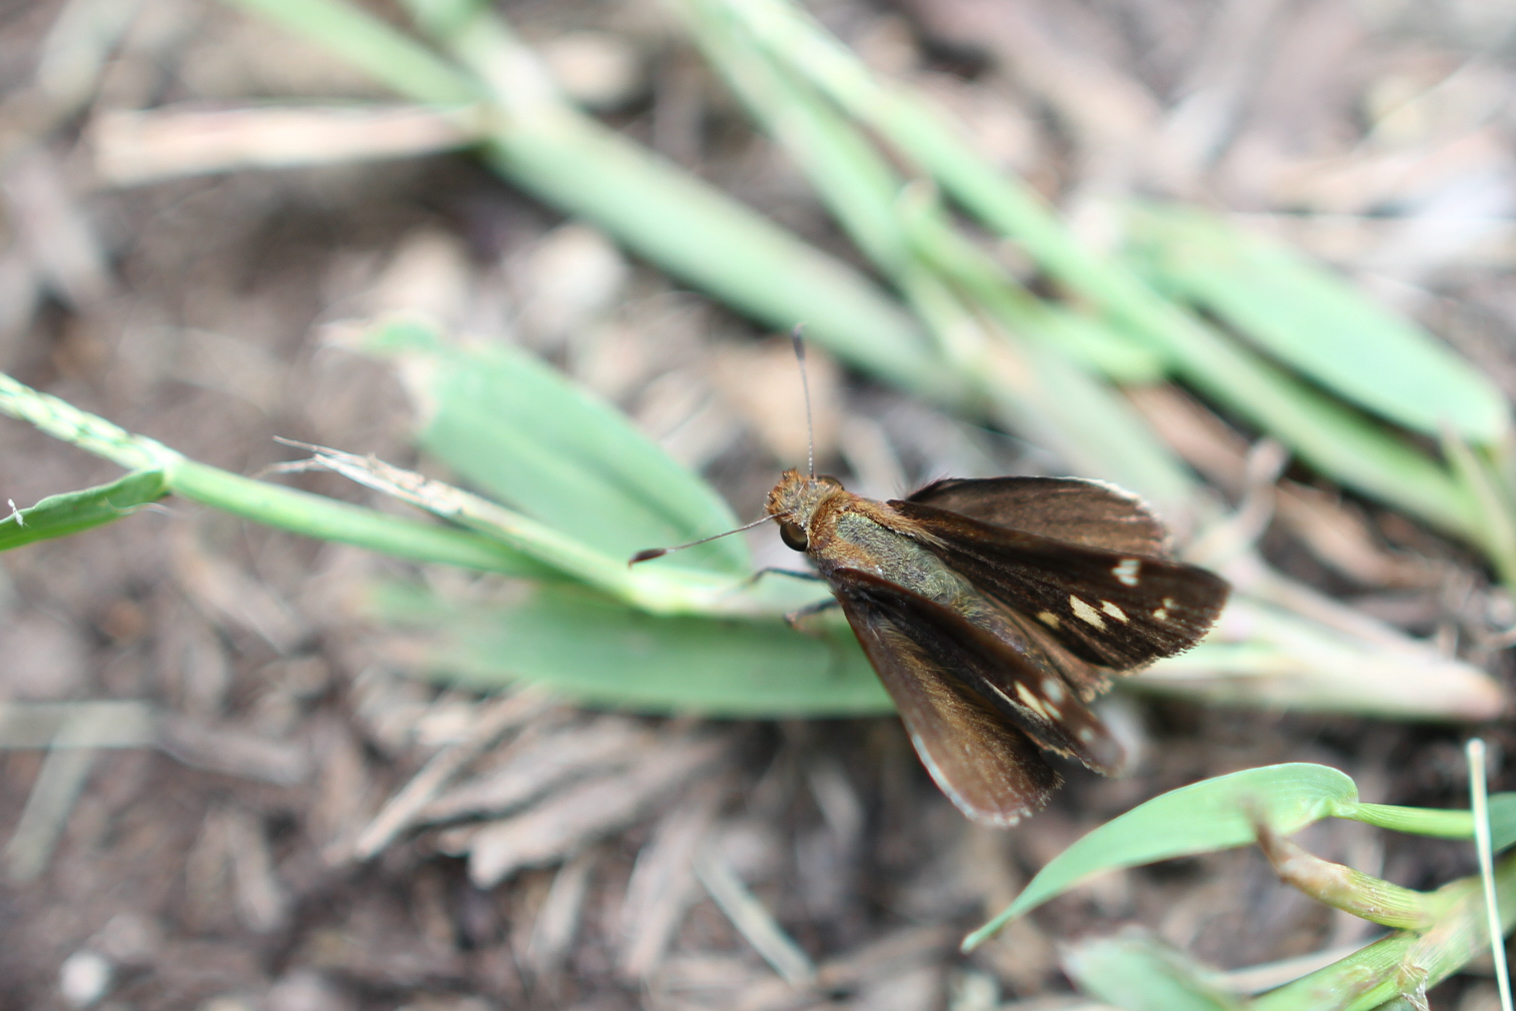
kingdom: Animalia
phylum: Arthropoda
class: Insecta
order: Lepidoptera
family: Hesperiidae
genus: Lon
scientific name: Lon zabulon
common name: Zabulon skipper
